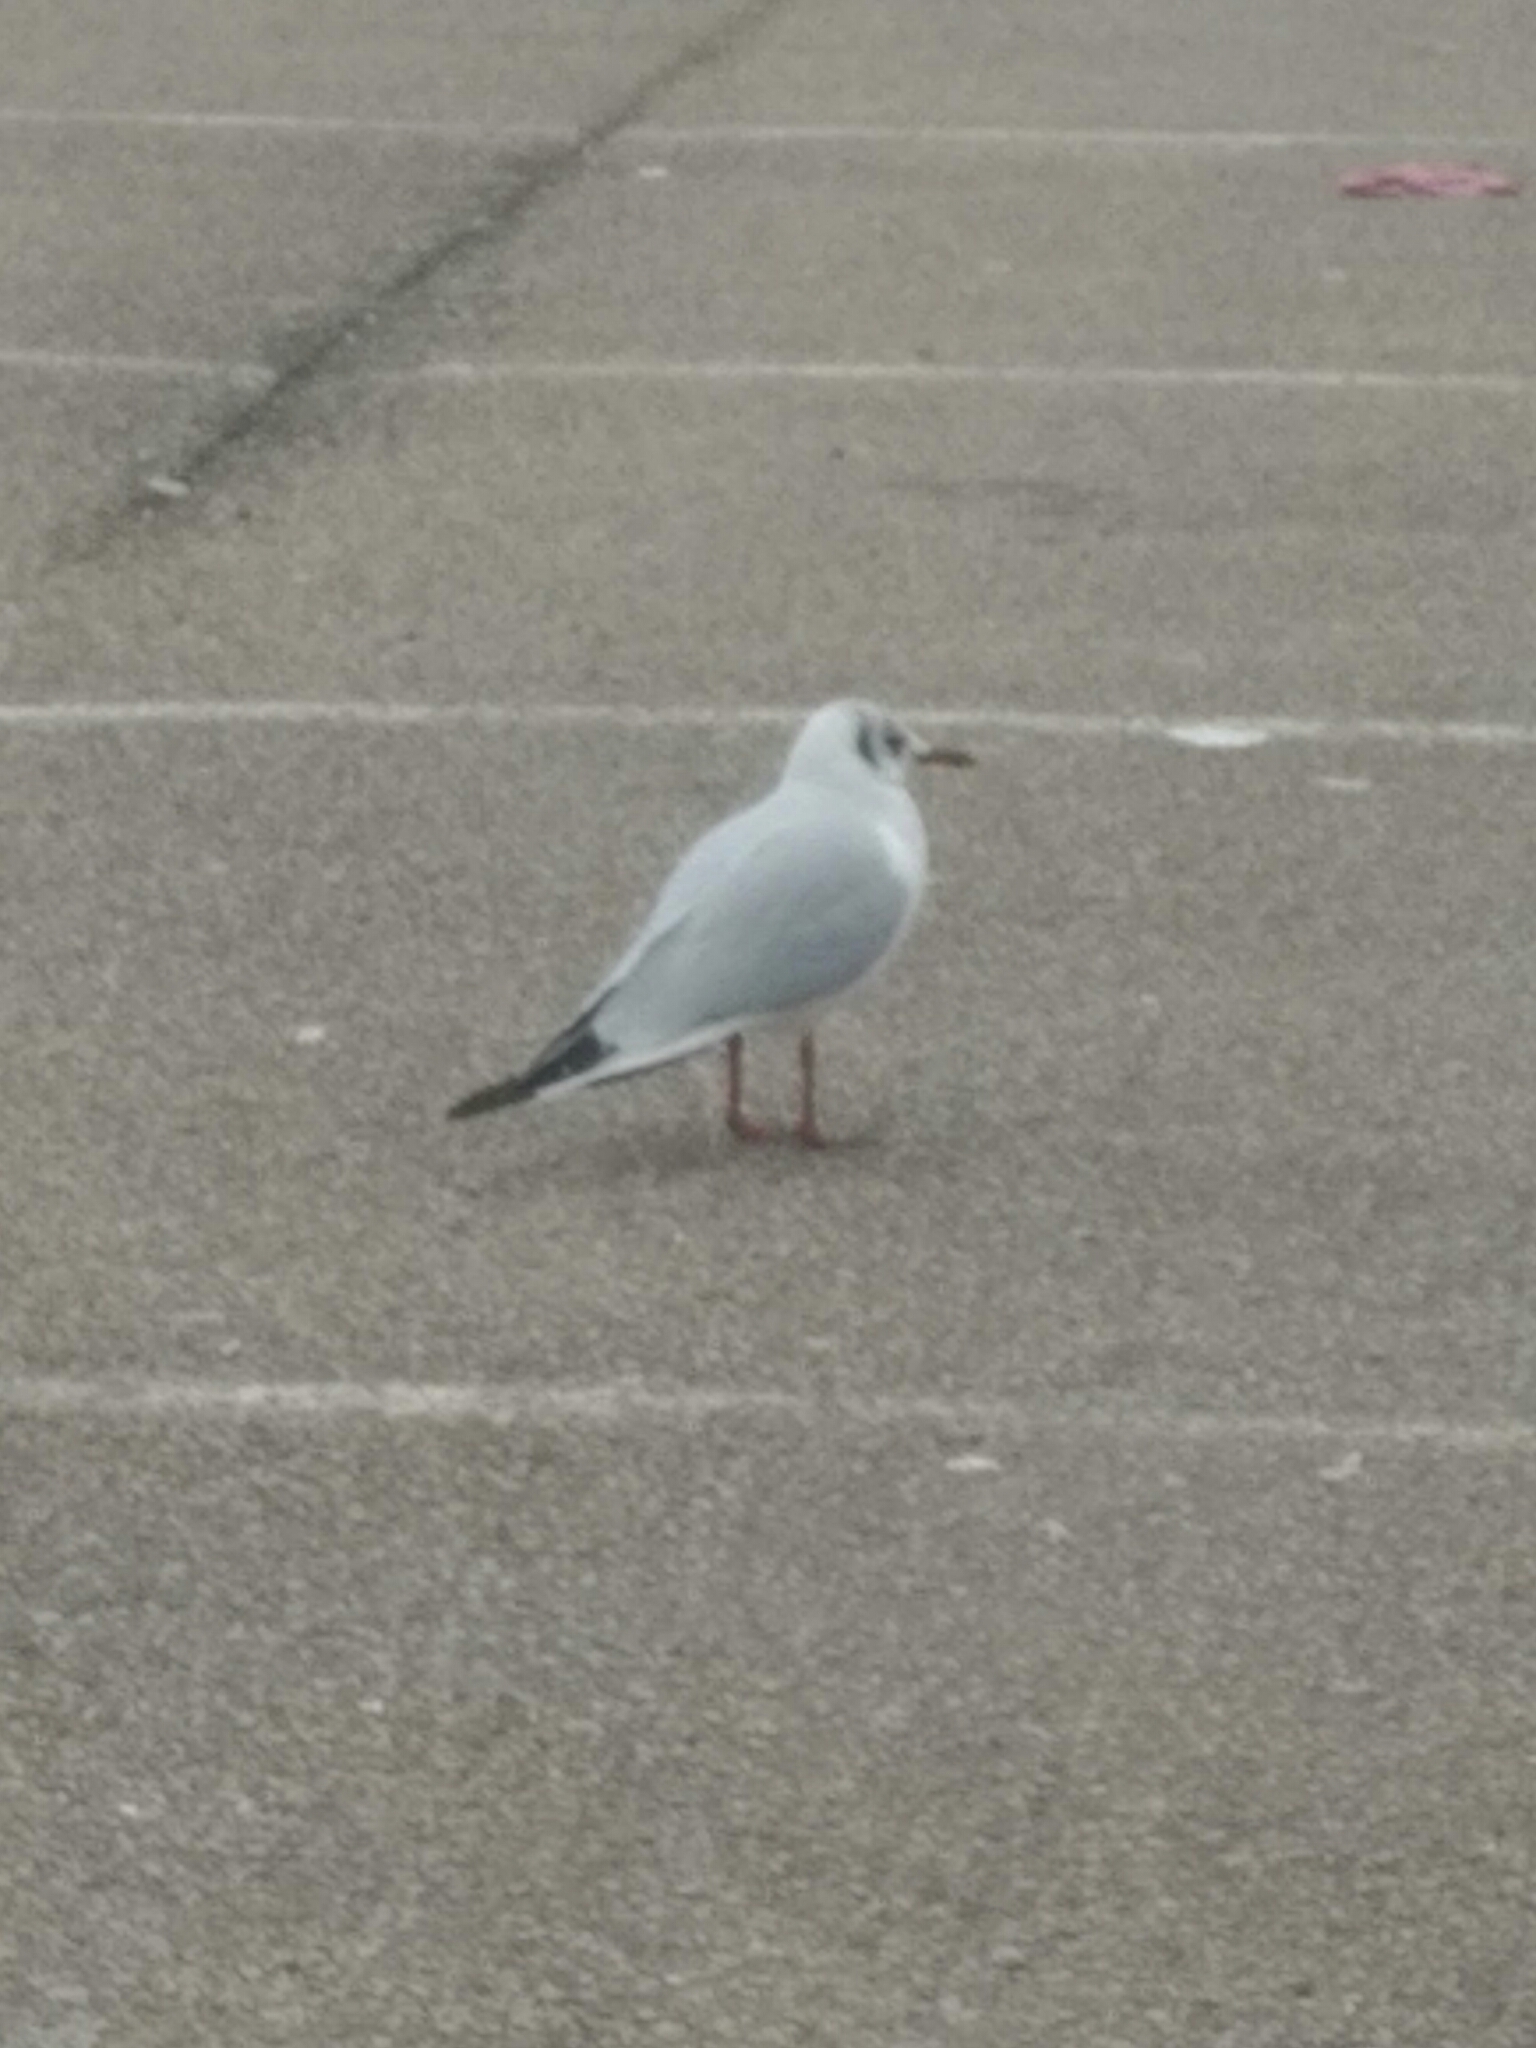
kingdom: Animalia
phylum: Chordata
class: Aves
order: Charadriiformes
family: Laridae
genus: Chroicocephalus
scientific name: Chroicocephalus ridibundus
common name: Black-headed gull
